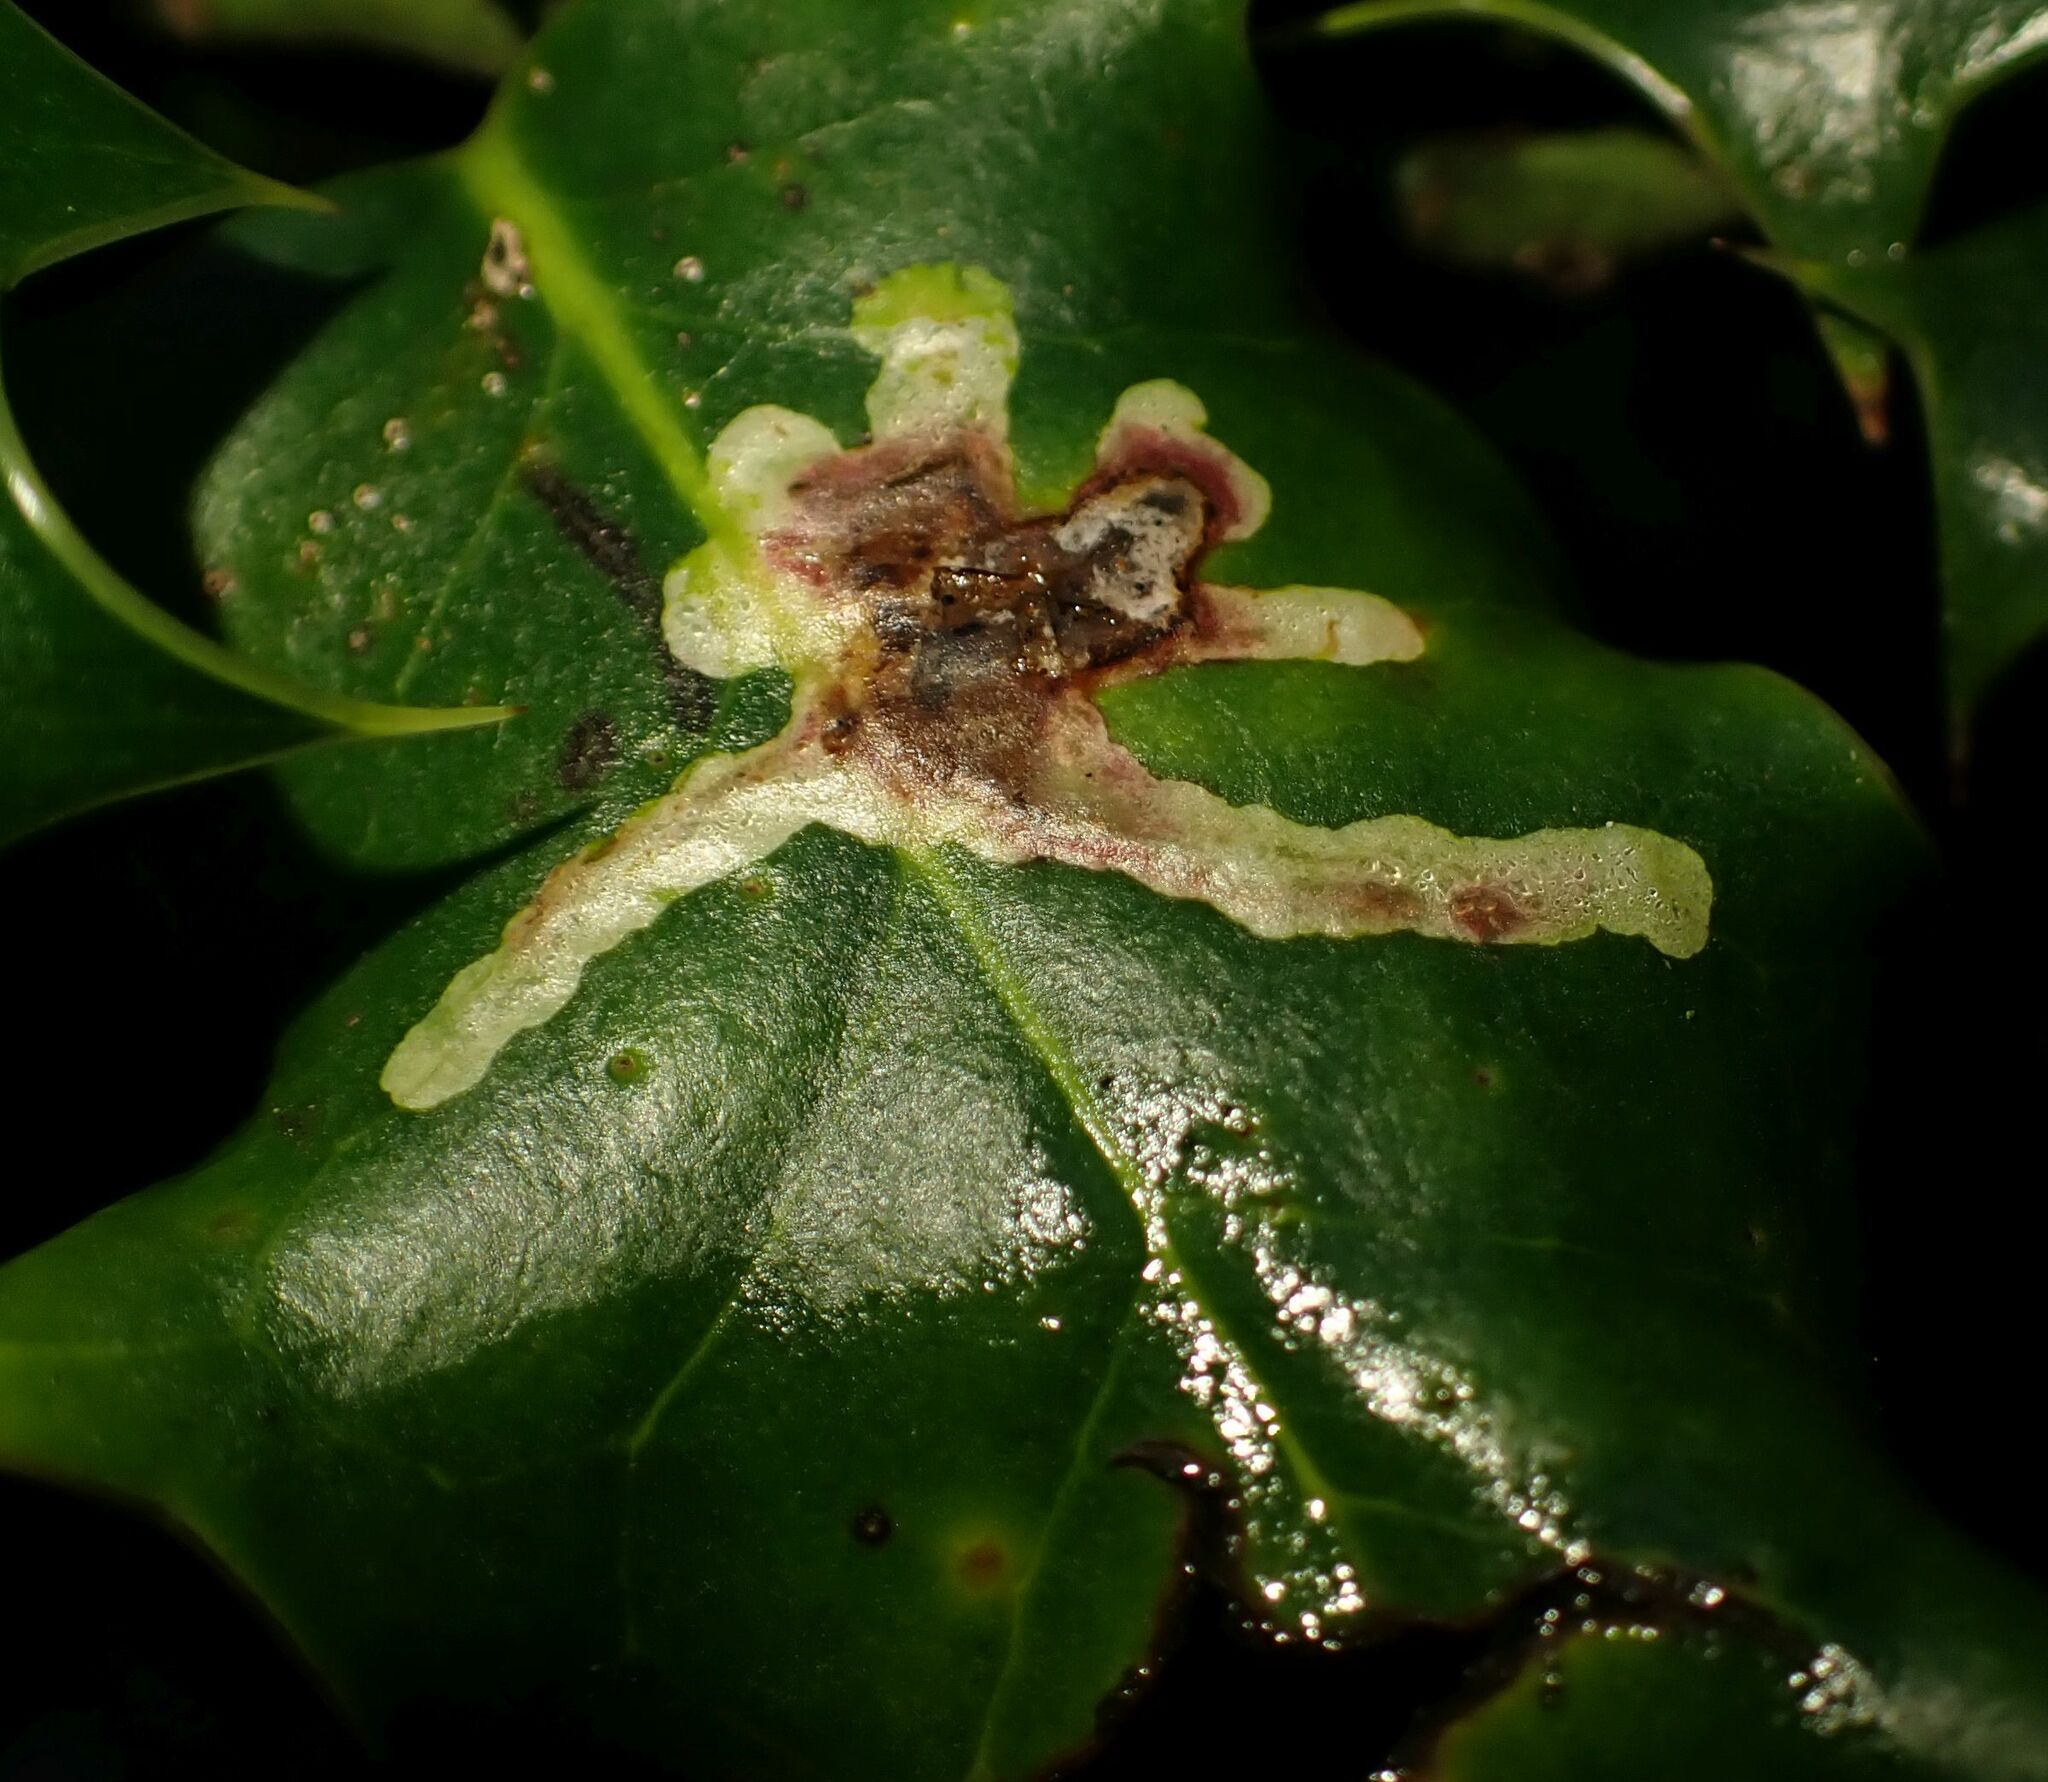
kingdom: Animalia
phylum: Arthropoda
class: Insecta
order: Diptera
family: Agromyzidae
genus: Phytomyza
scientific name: Phytomyza ilicis
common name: Holly leafminer
